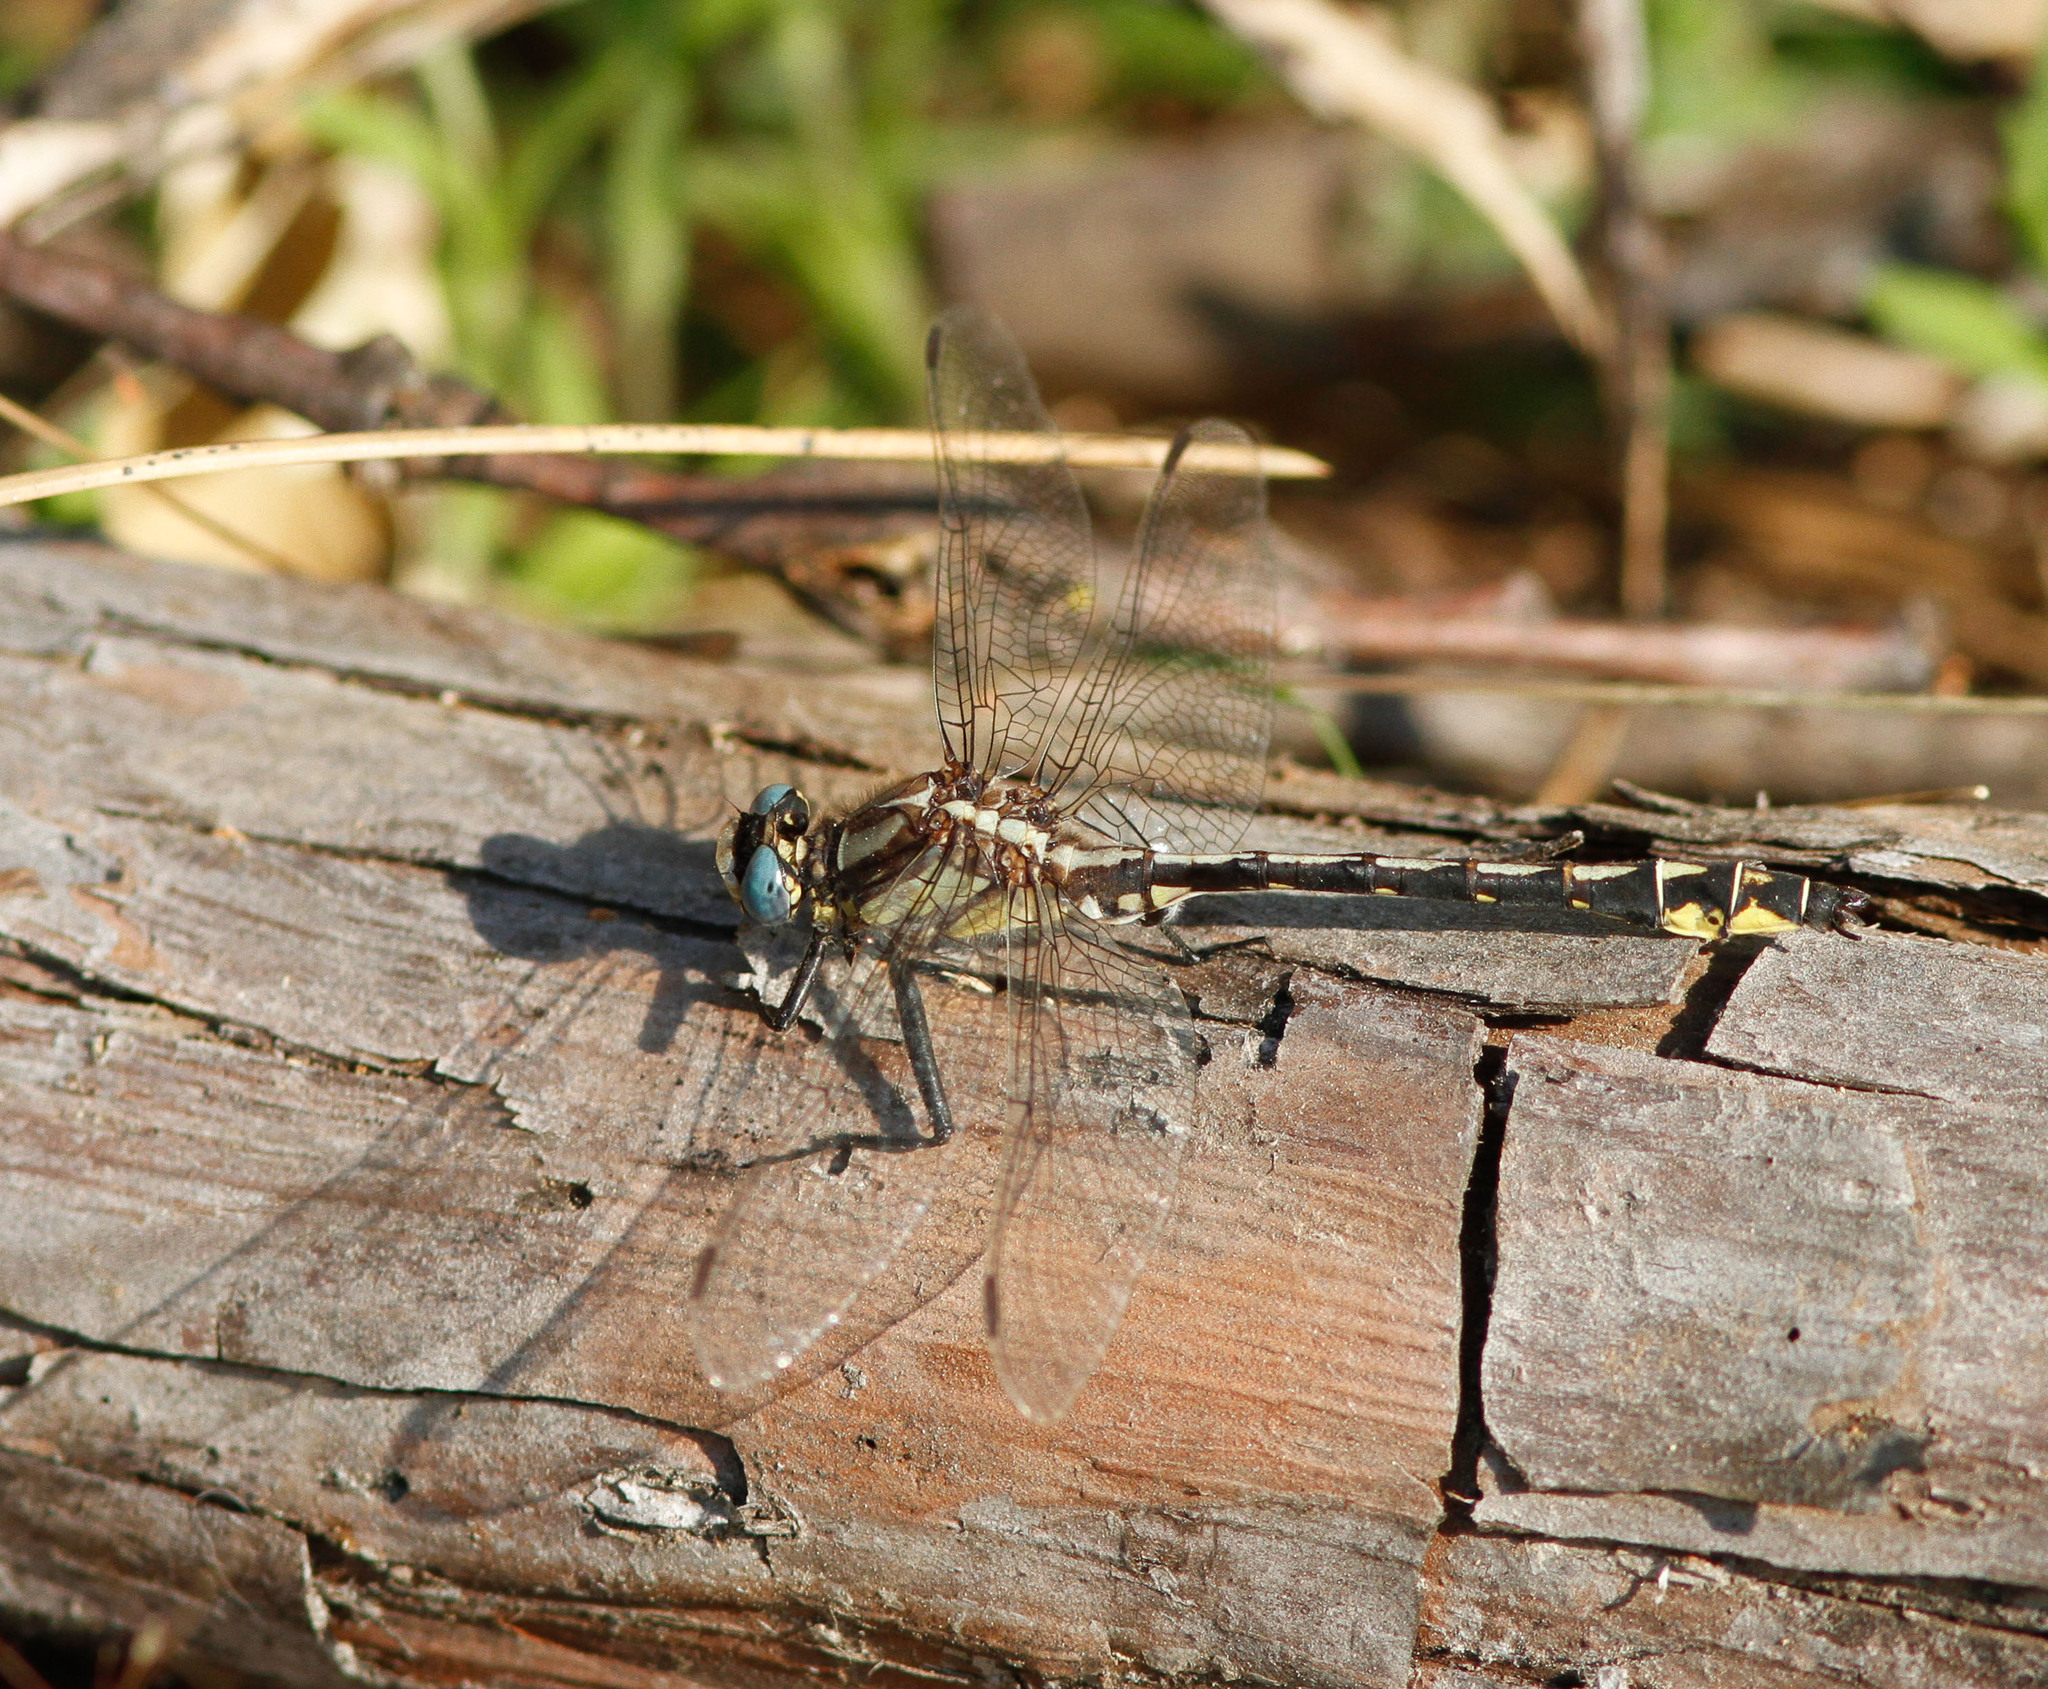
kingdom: Animalia
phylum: Arthropoda
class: Insecta
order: Odonata
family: Gomphidae
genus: Phanogomphus
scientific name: Phanogomphus kurilis
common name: Pacific clubtail
